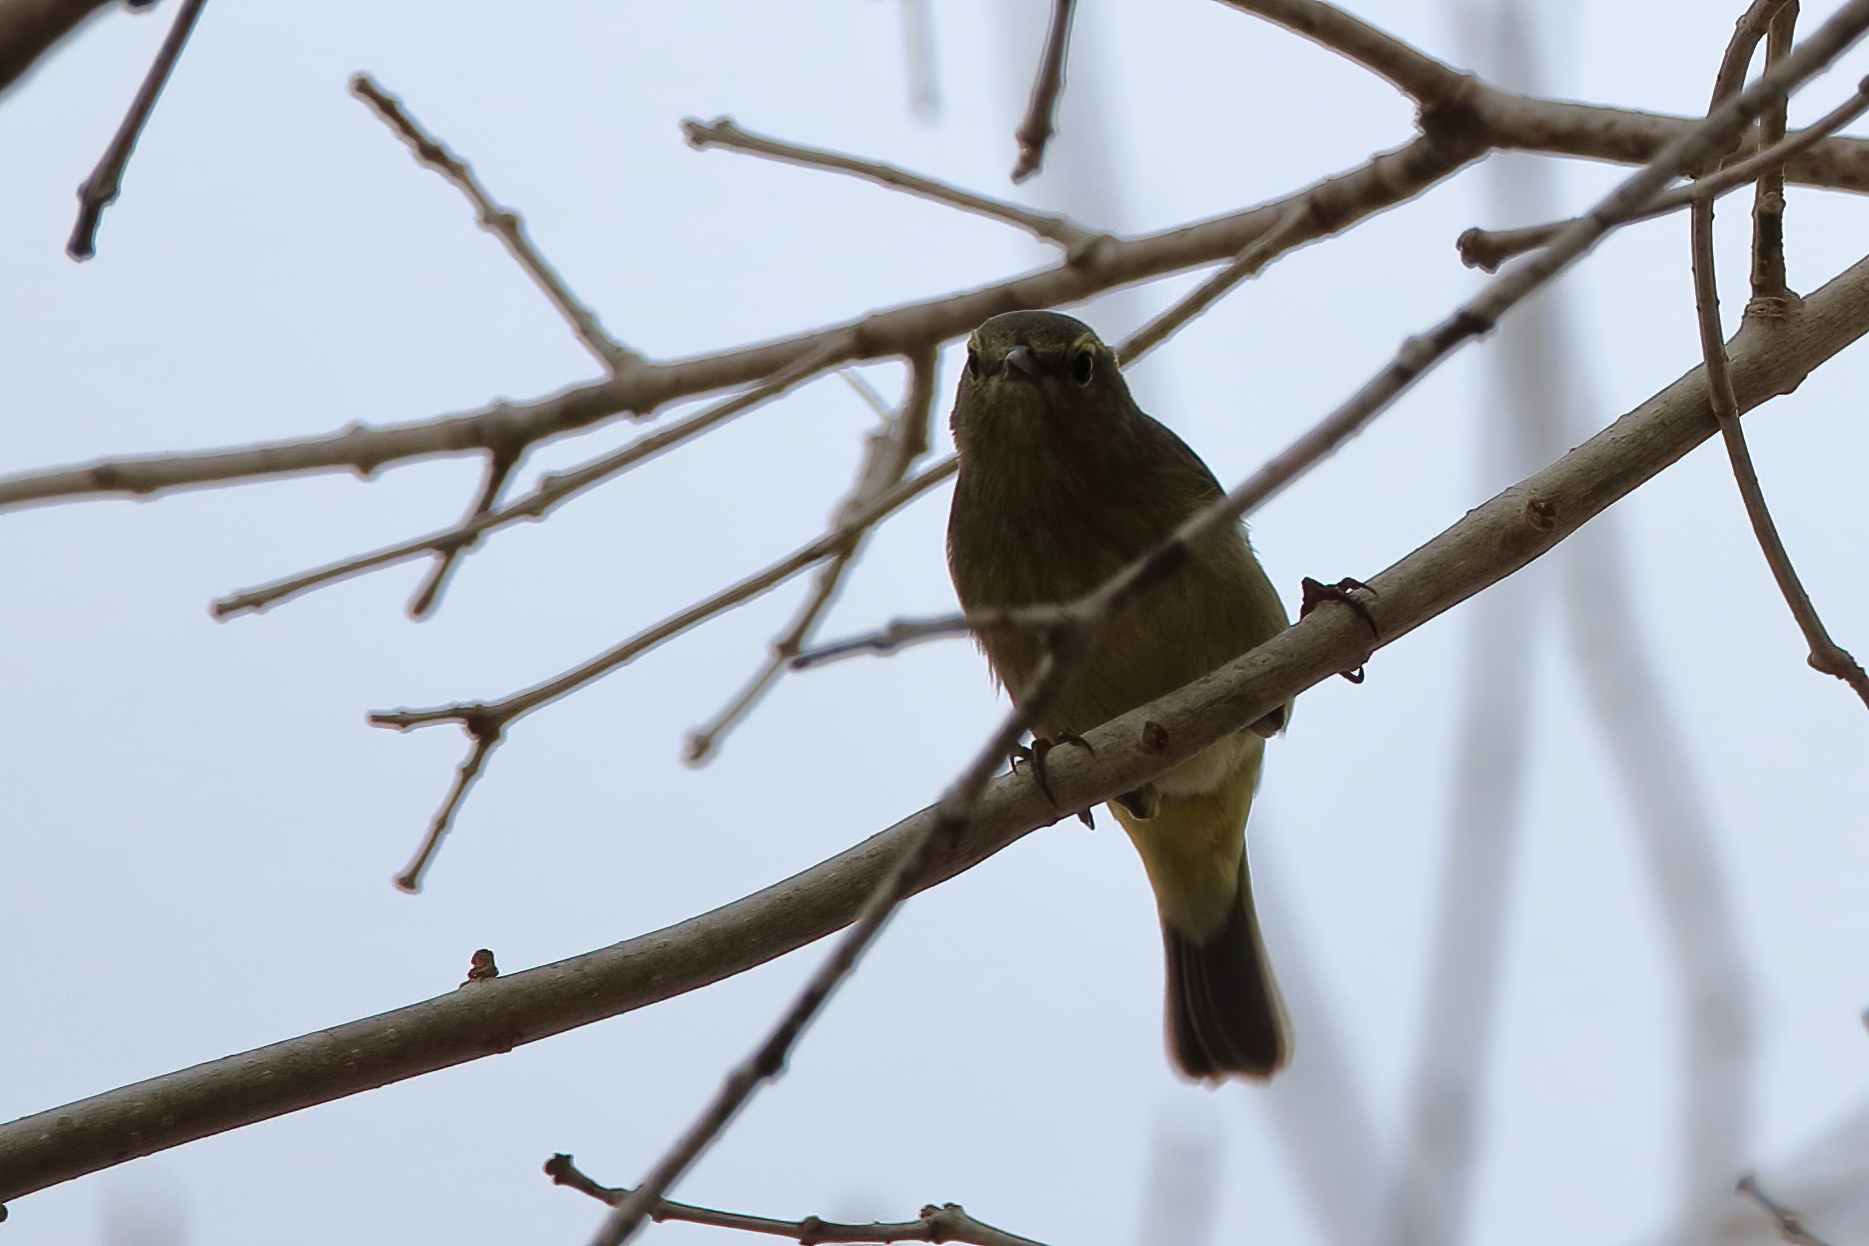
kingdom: Animalia
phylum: Chordata
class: Aves
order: Passeriformes
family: Parulidae
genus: Leiothlypis
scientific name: Leiothlypis celata
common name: Orange-crowned warbler
